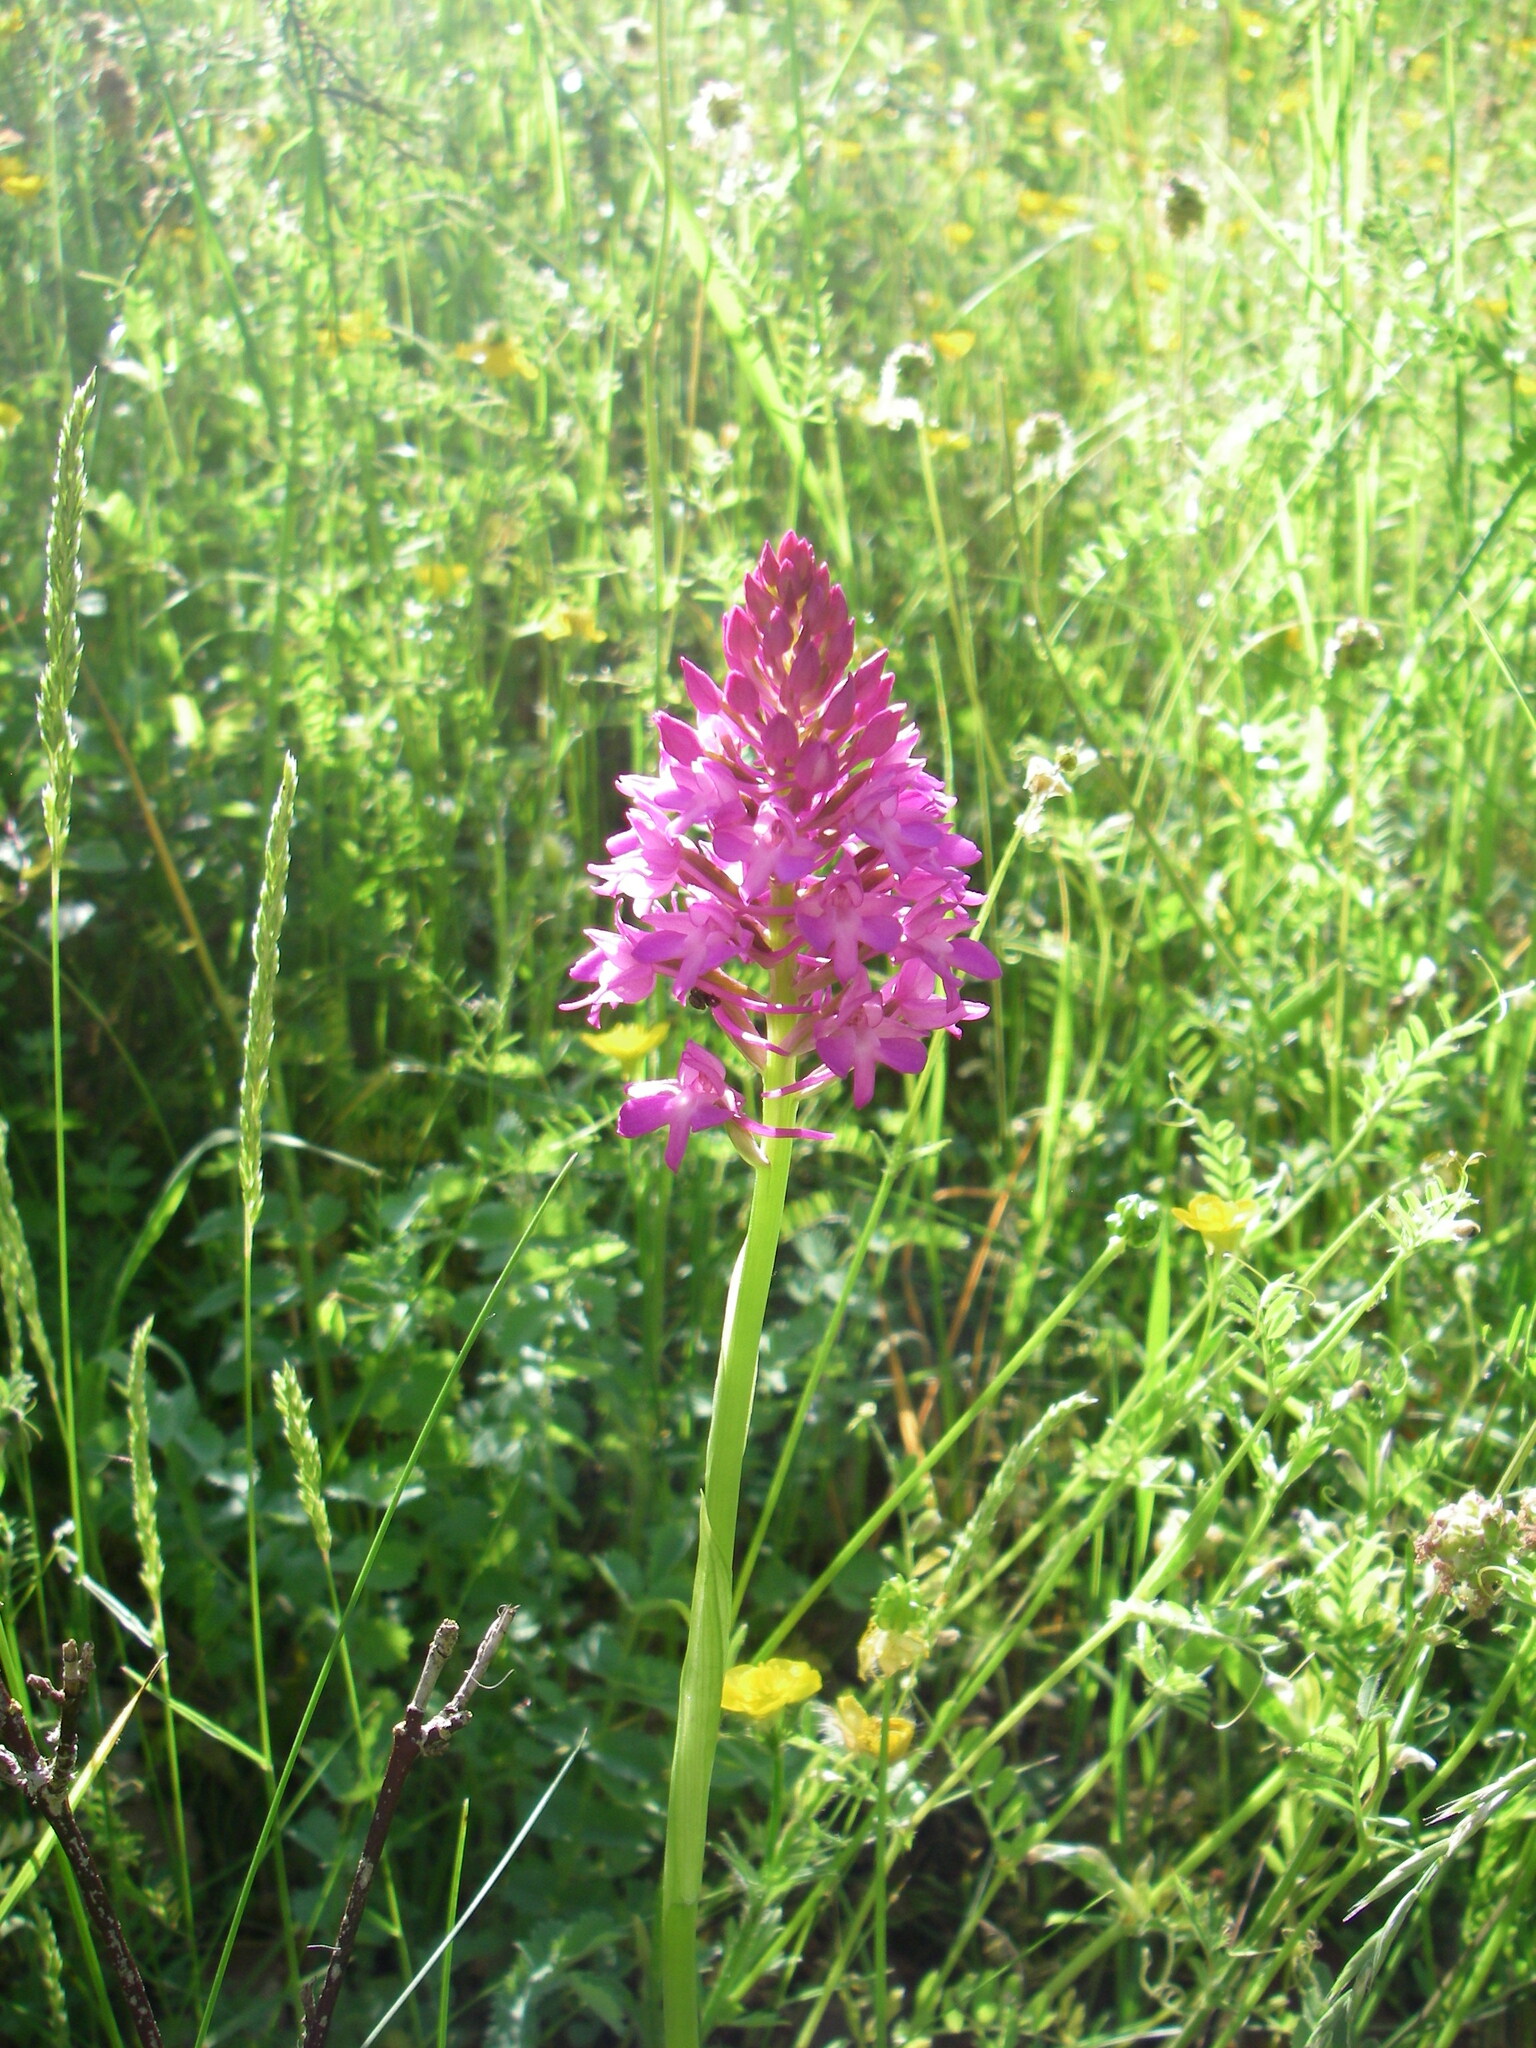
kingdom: Plantae
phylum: Tracheophyta
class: Liliopsida
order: Asparagales
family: Orchidaceae
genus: Anacamptis
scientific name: Anacamptis pyramidalis
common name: Pyramidal orchid
